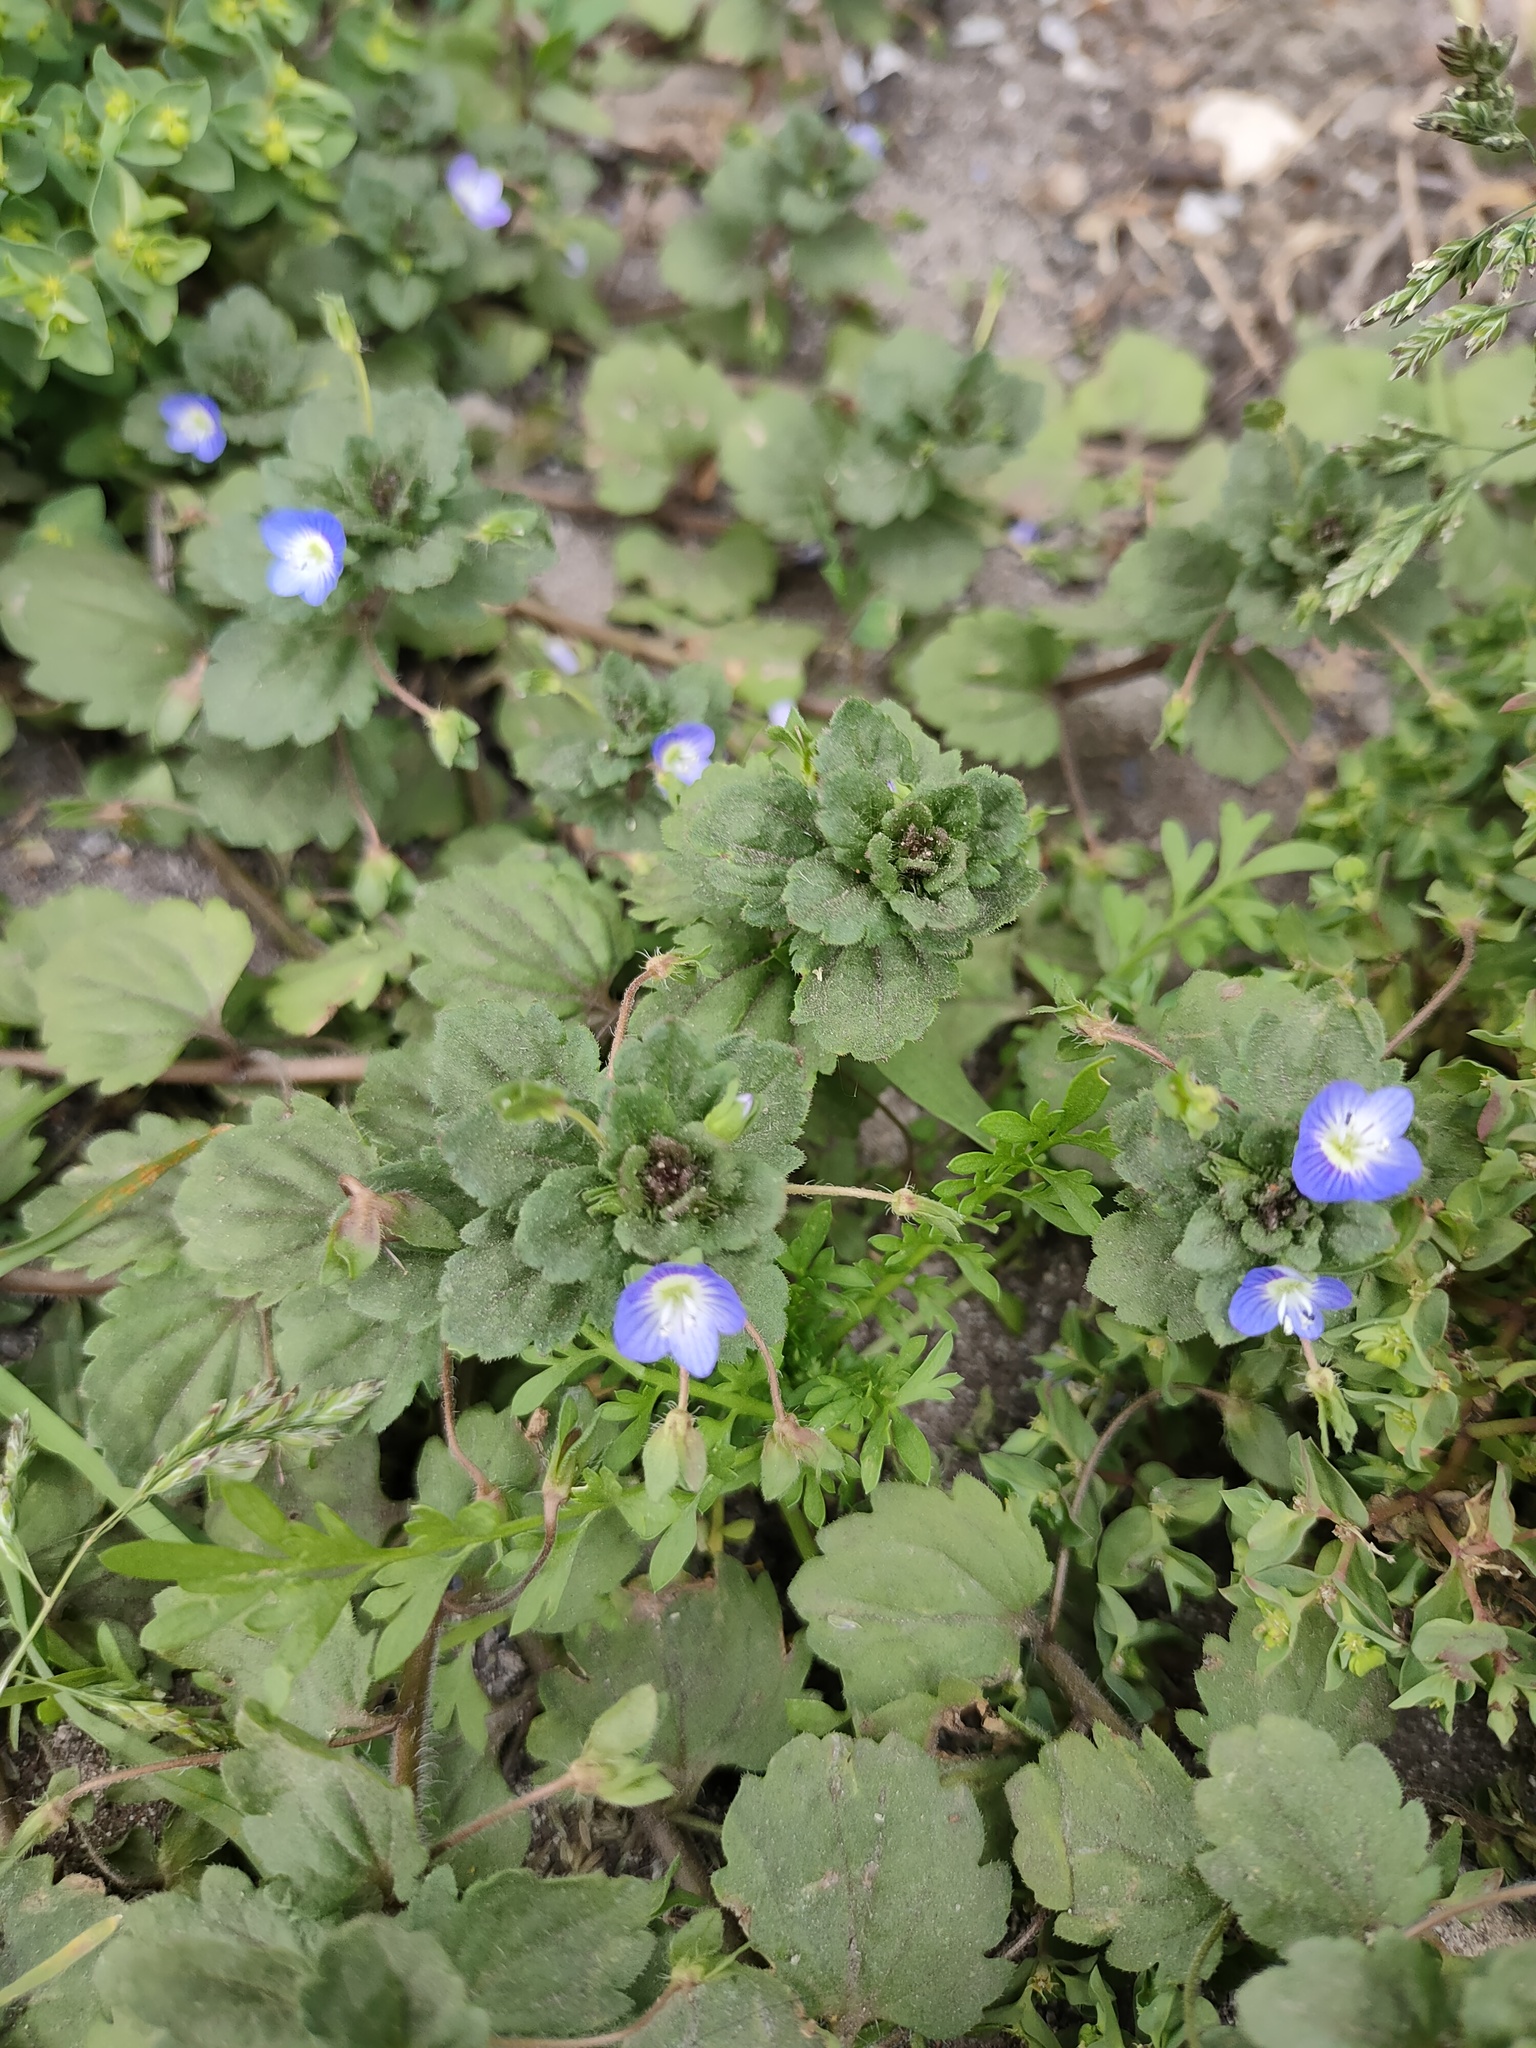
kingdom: Plantae
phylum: Tracheophyta
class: Magnoliopsida
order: Lamiales
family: Plantaginaceae
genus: Veronica
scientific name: Veronica persica
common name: Common field-speedwell
